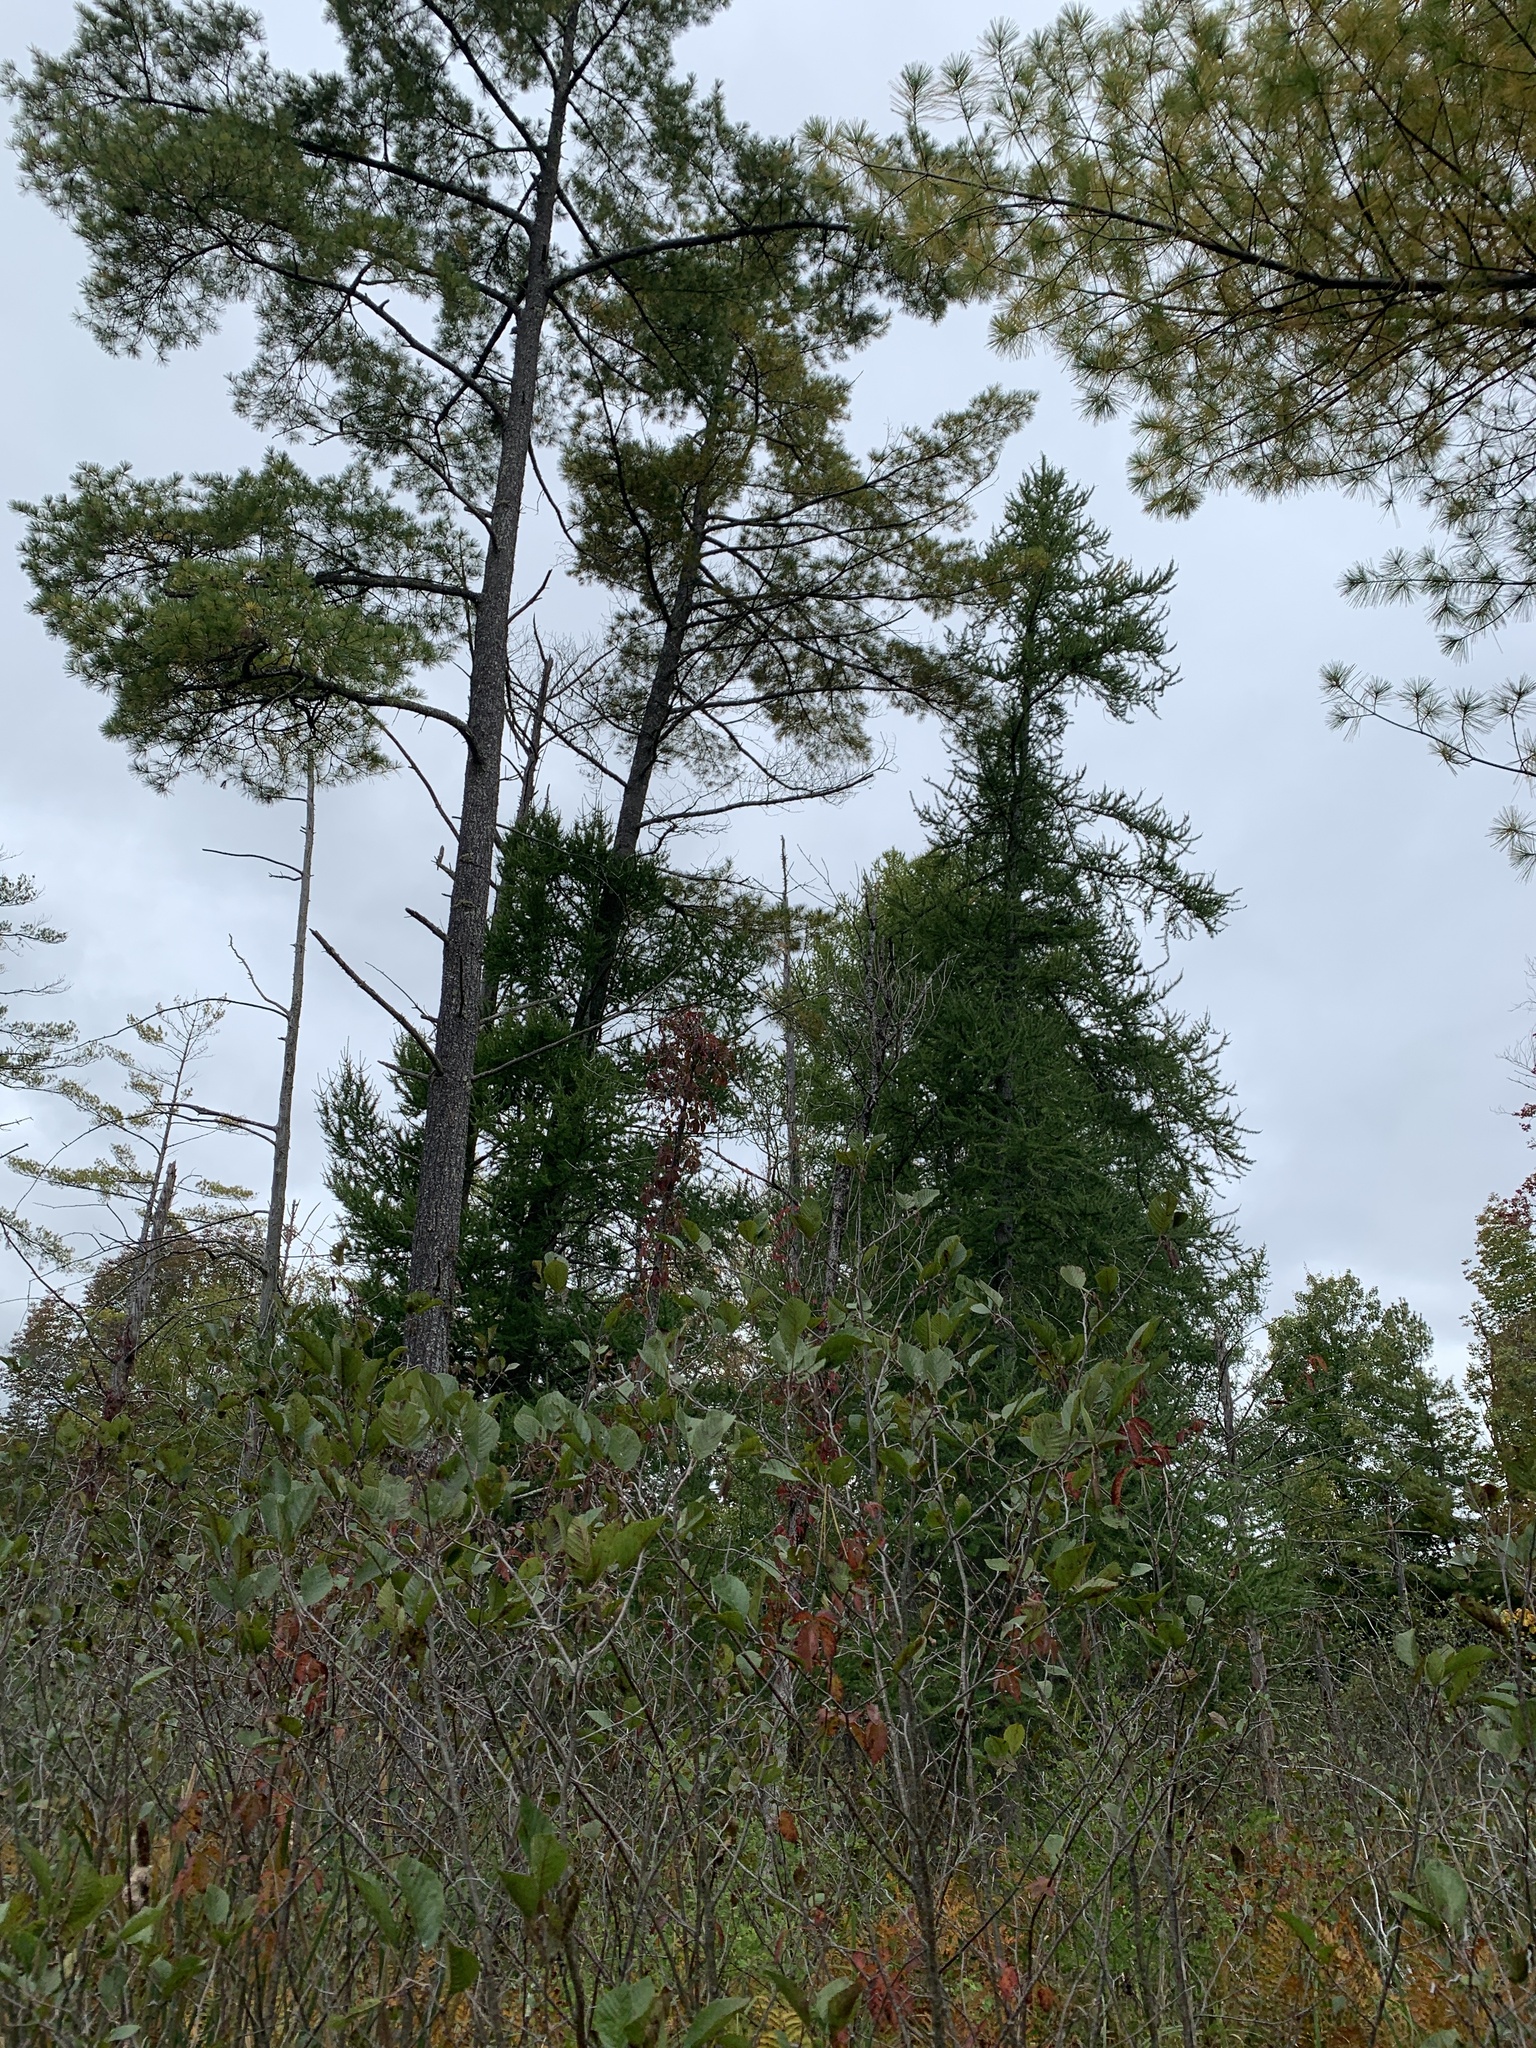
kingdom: Plantae
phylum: Tracheophyta
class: Pinopsida
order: Pinales
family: Pinaceae
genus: Larix
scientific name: Larix laricina
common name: American larch
